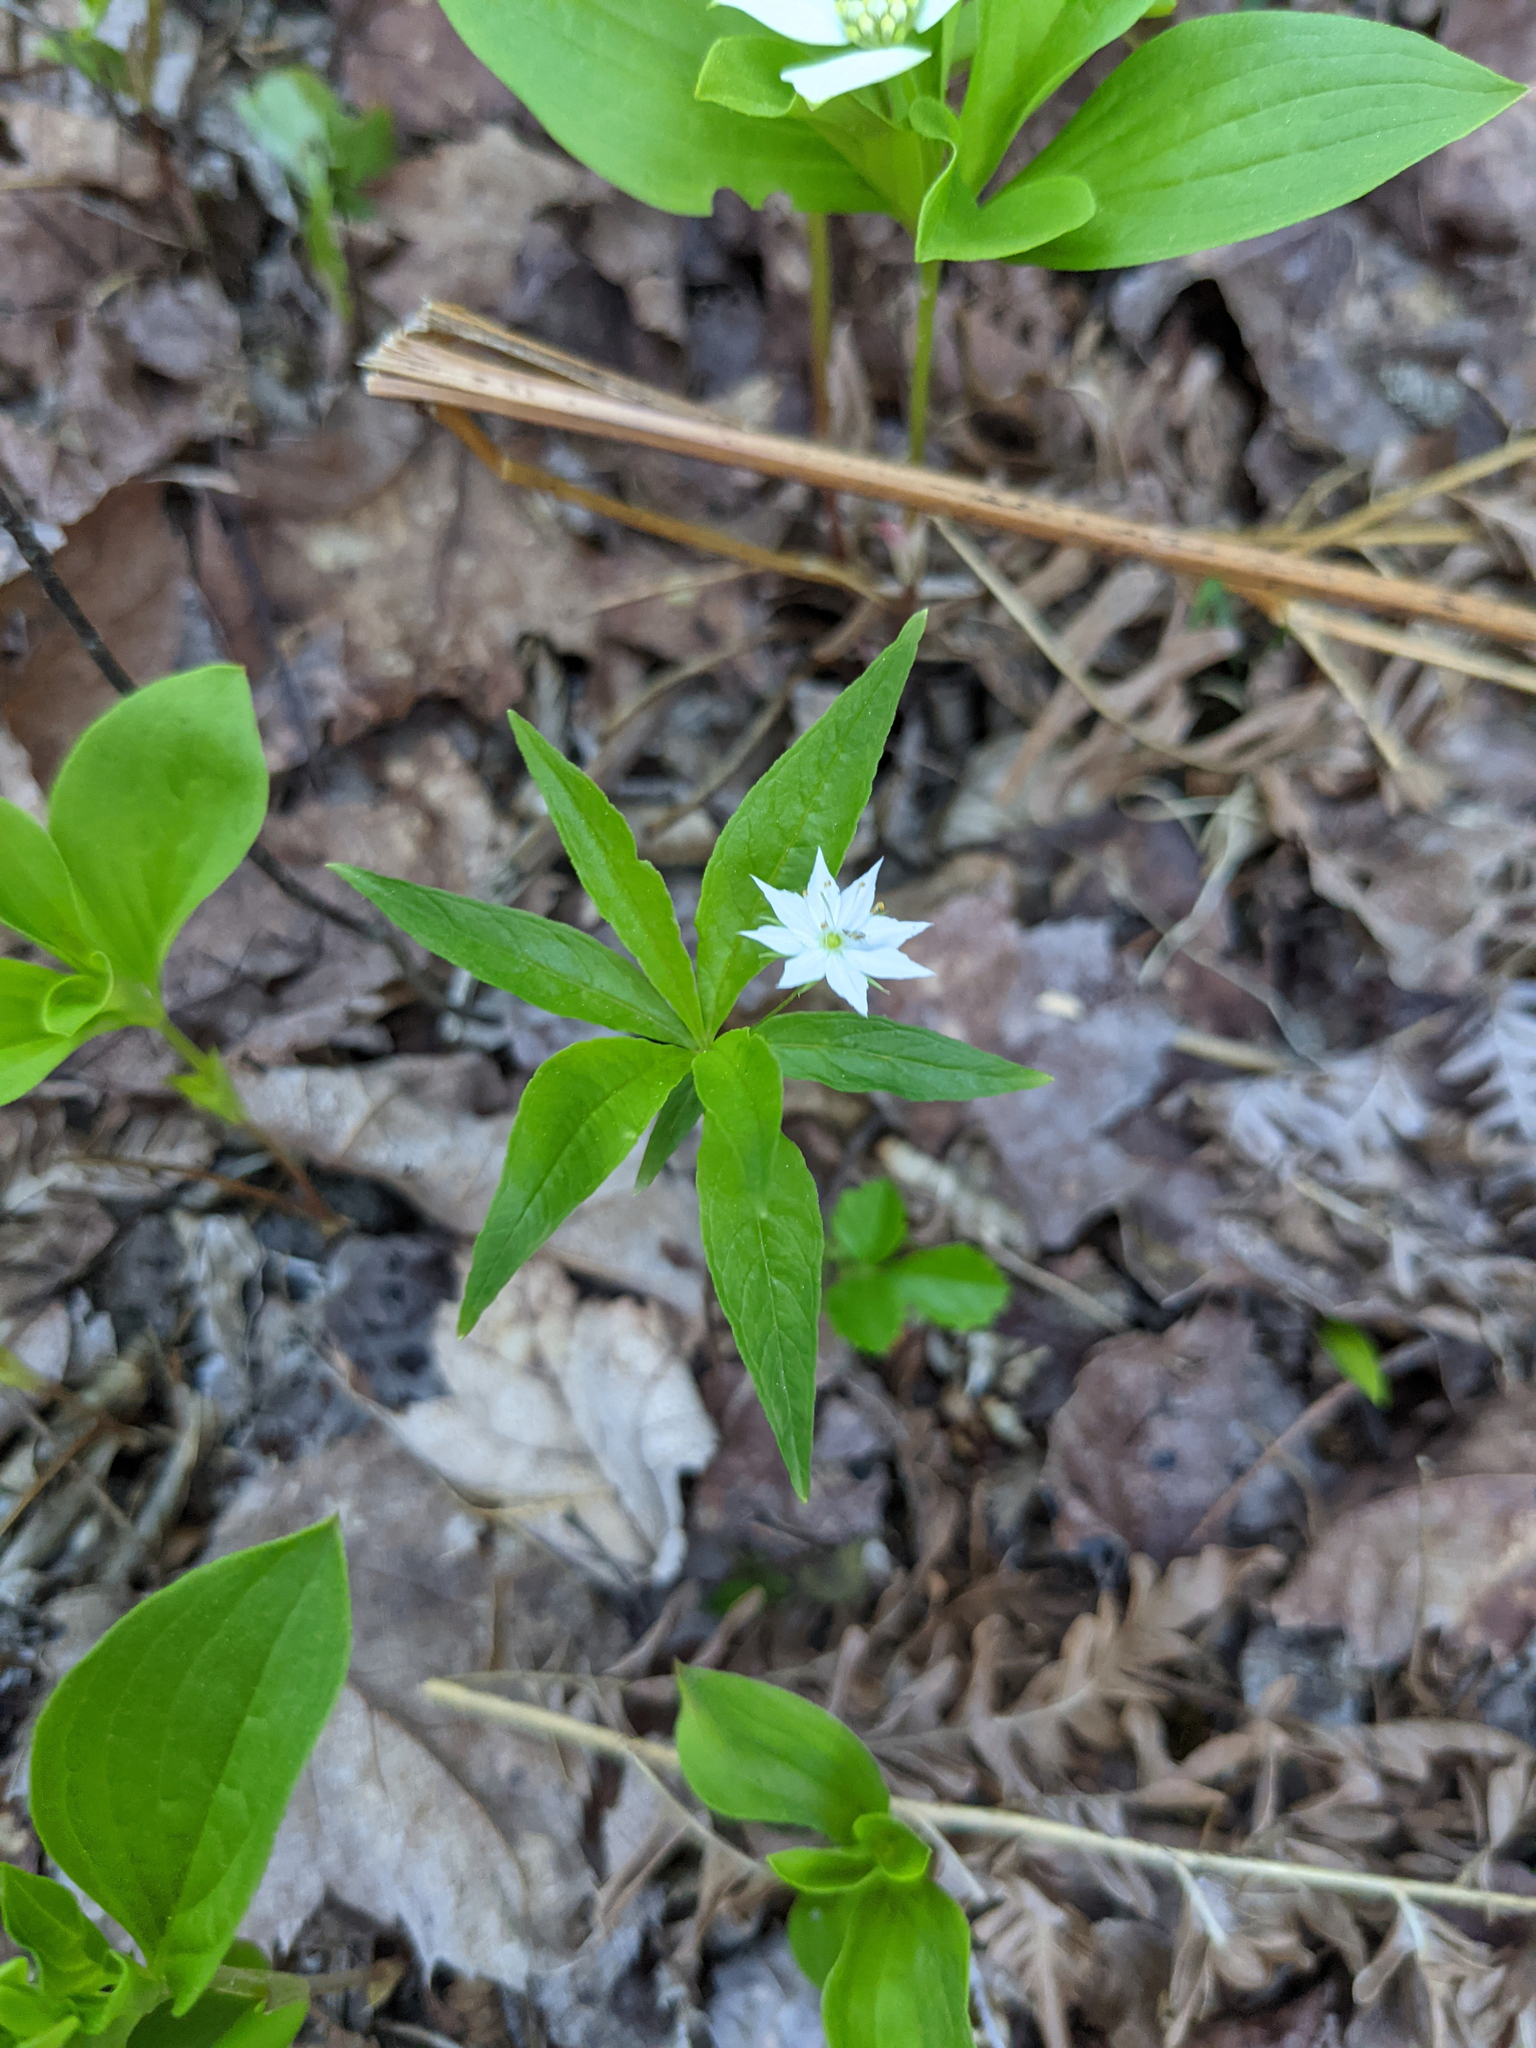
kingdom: Plantae
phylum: Tracheophyta
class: Magnoliopsida
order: Ericales
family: Primulaceae
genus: Lysimachia
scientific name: Lysimachia borealis
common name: American starflower
